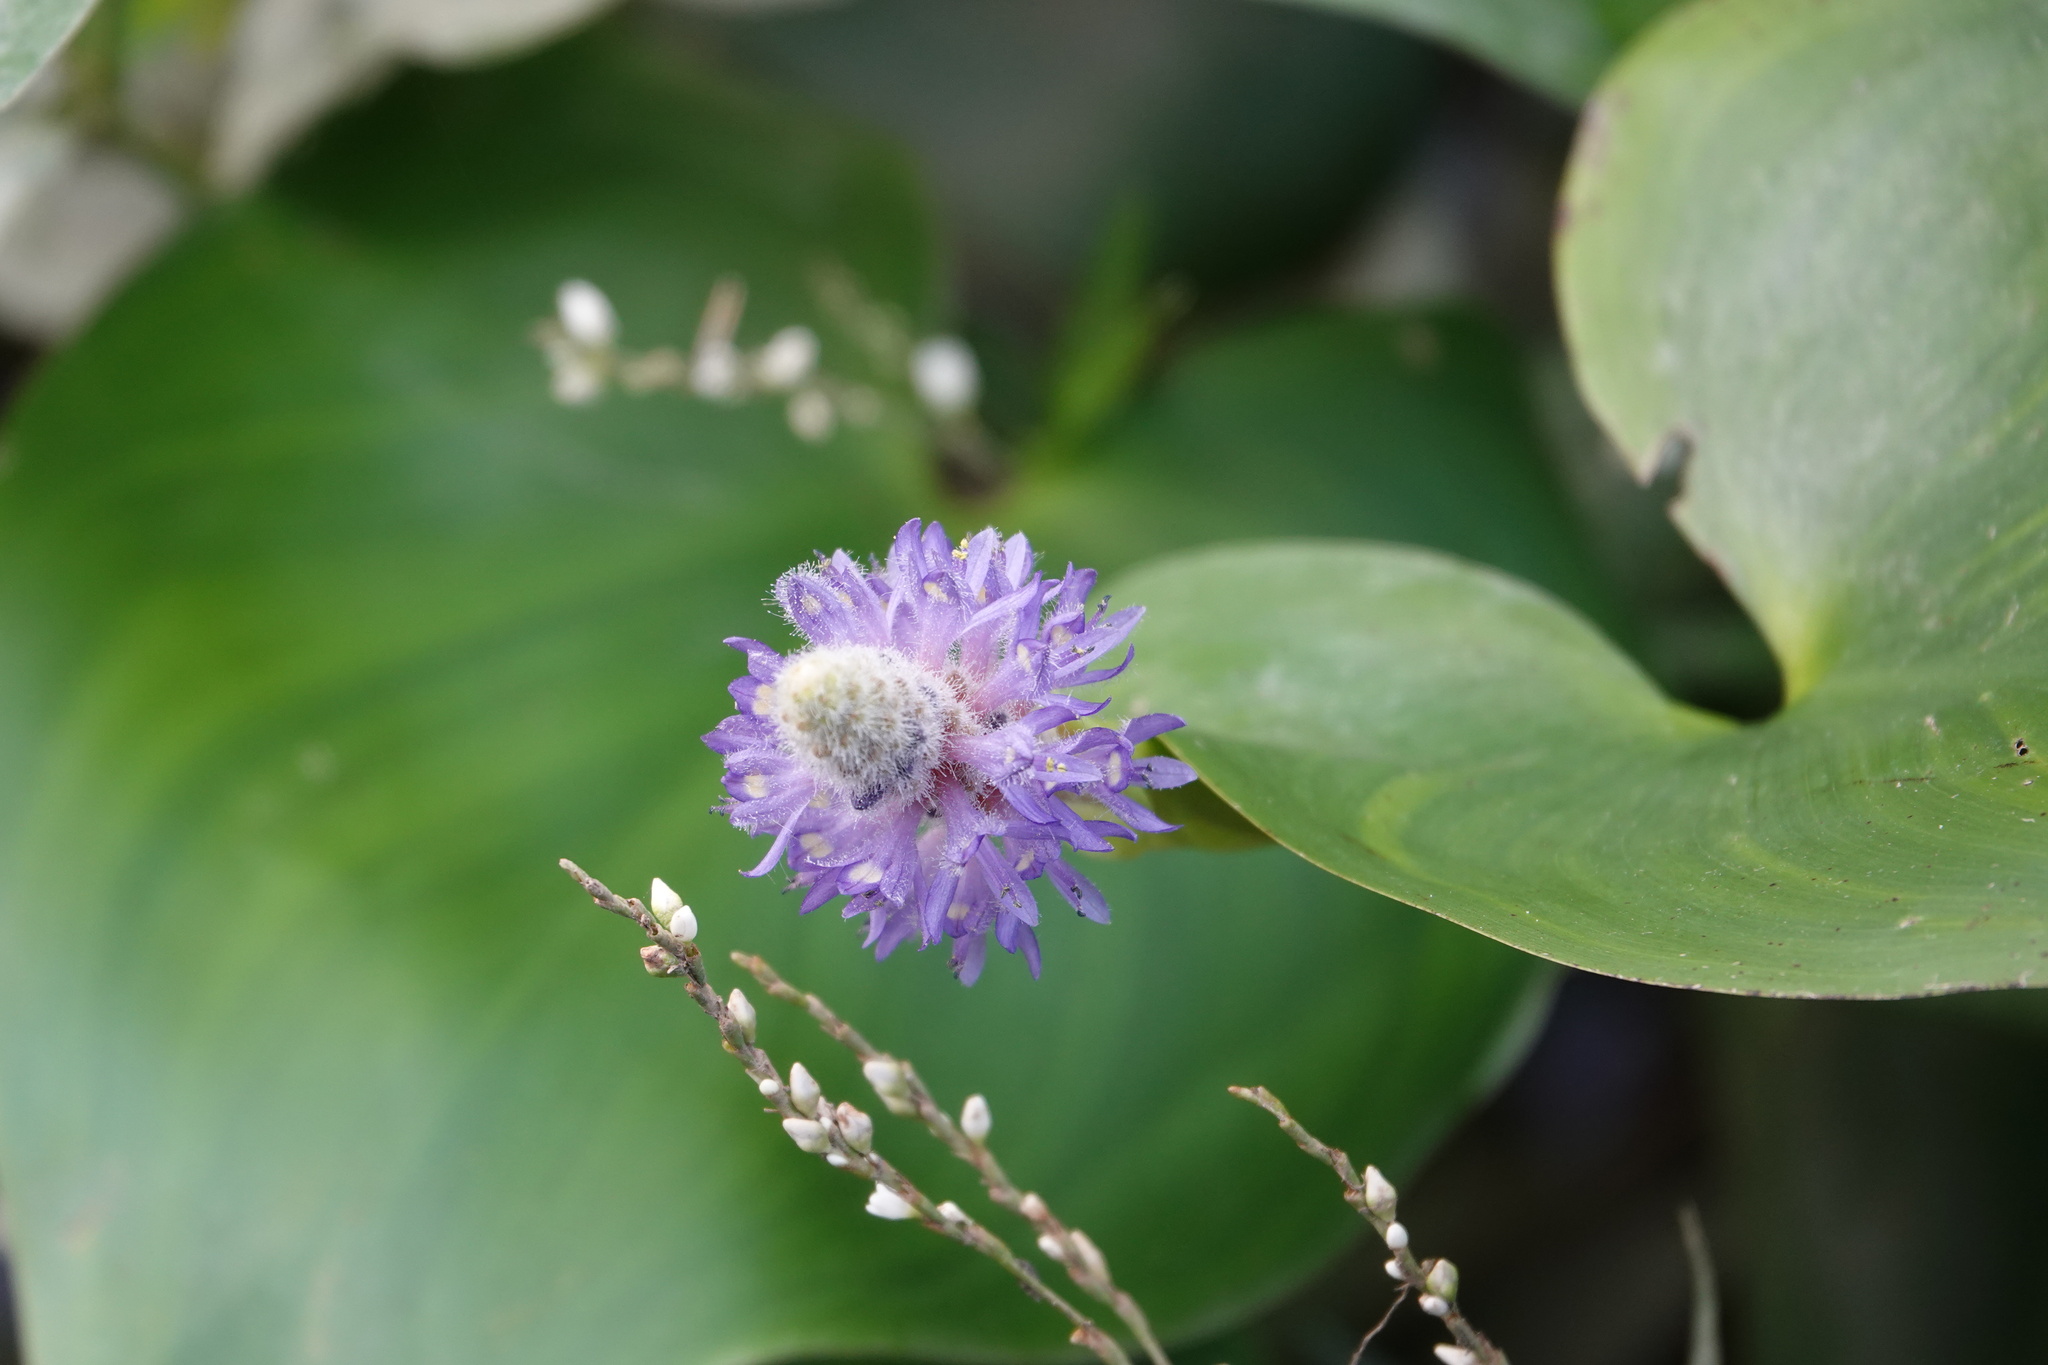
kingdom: Plantae
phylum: Tracheophyta
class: Liliopsida
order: Commelinales
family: Pontederiaceae
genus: Pontederia
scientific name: Pontederia cordata
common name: Pickerelweed
